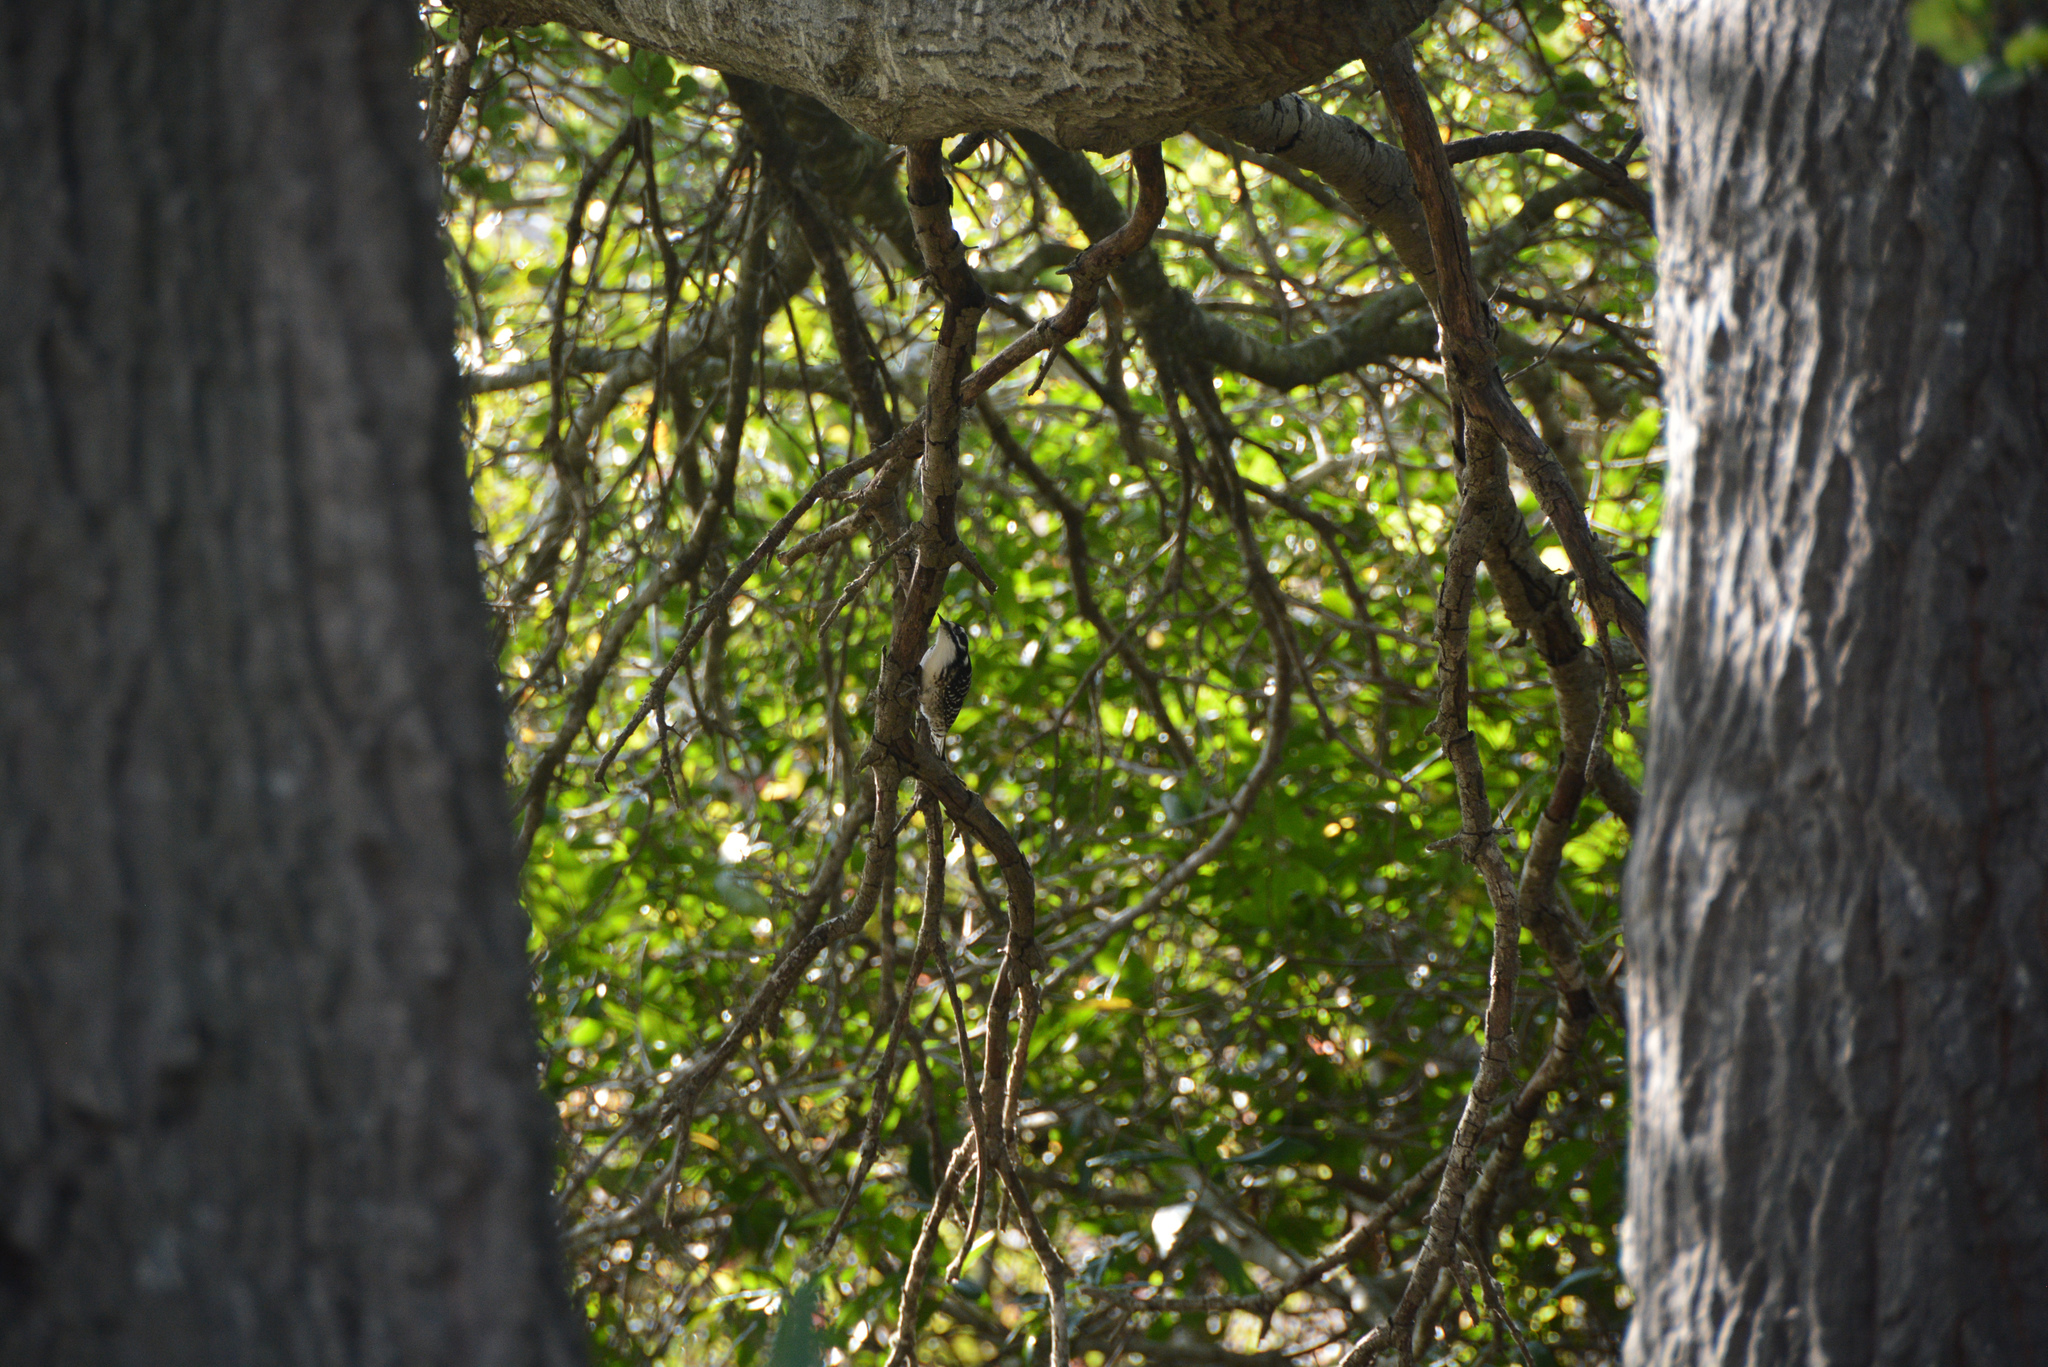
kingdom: Animalia
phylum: Chordata
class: Aves
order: Piciformes
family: Picidae
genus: Dryobates
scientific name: Dryobates nuttallii
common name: Nuttall's woodpecker
